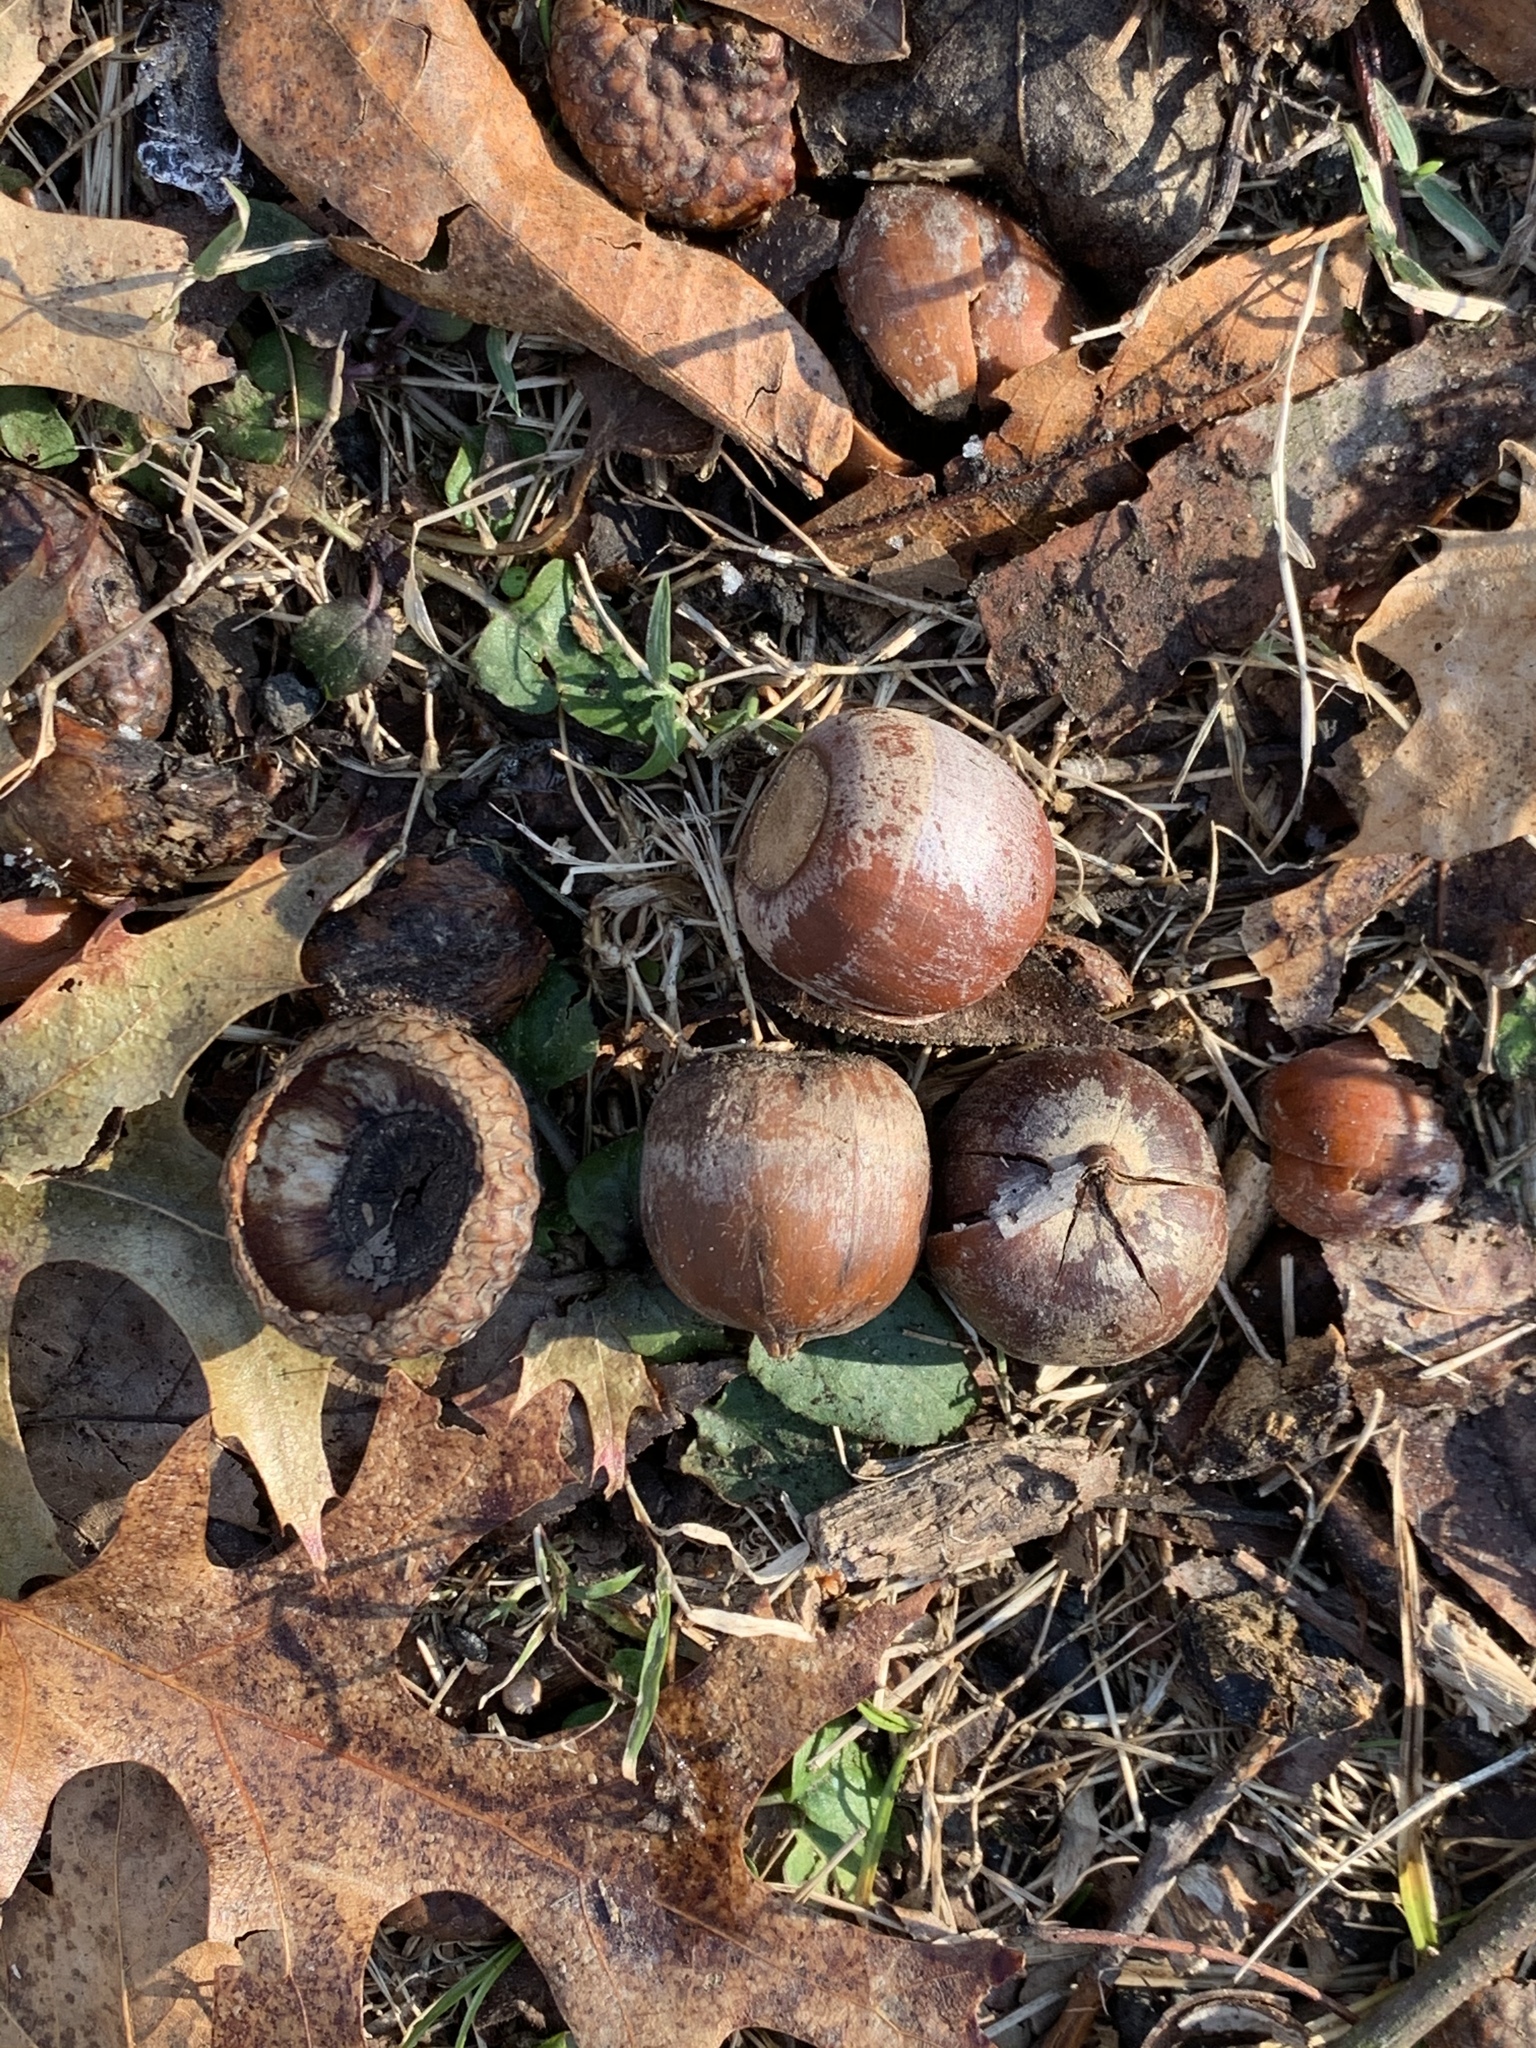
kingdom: Plantae
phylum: Tracheophyta
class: Magnoliopsida
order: Fagales
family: Fagaceae
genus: Quercus
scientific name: Quercus rubra
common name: Red oak
